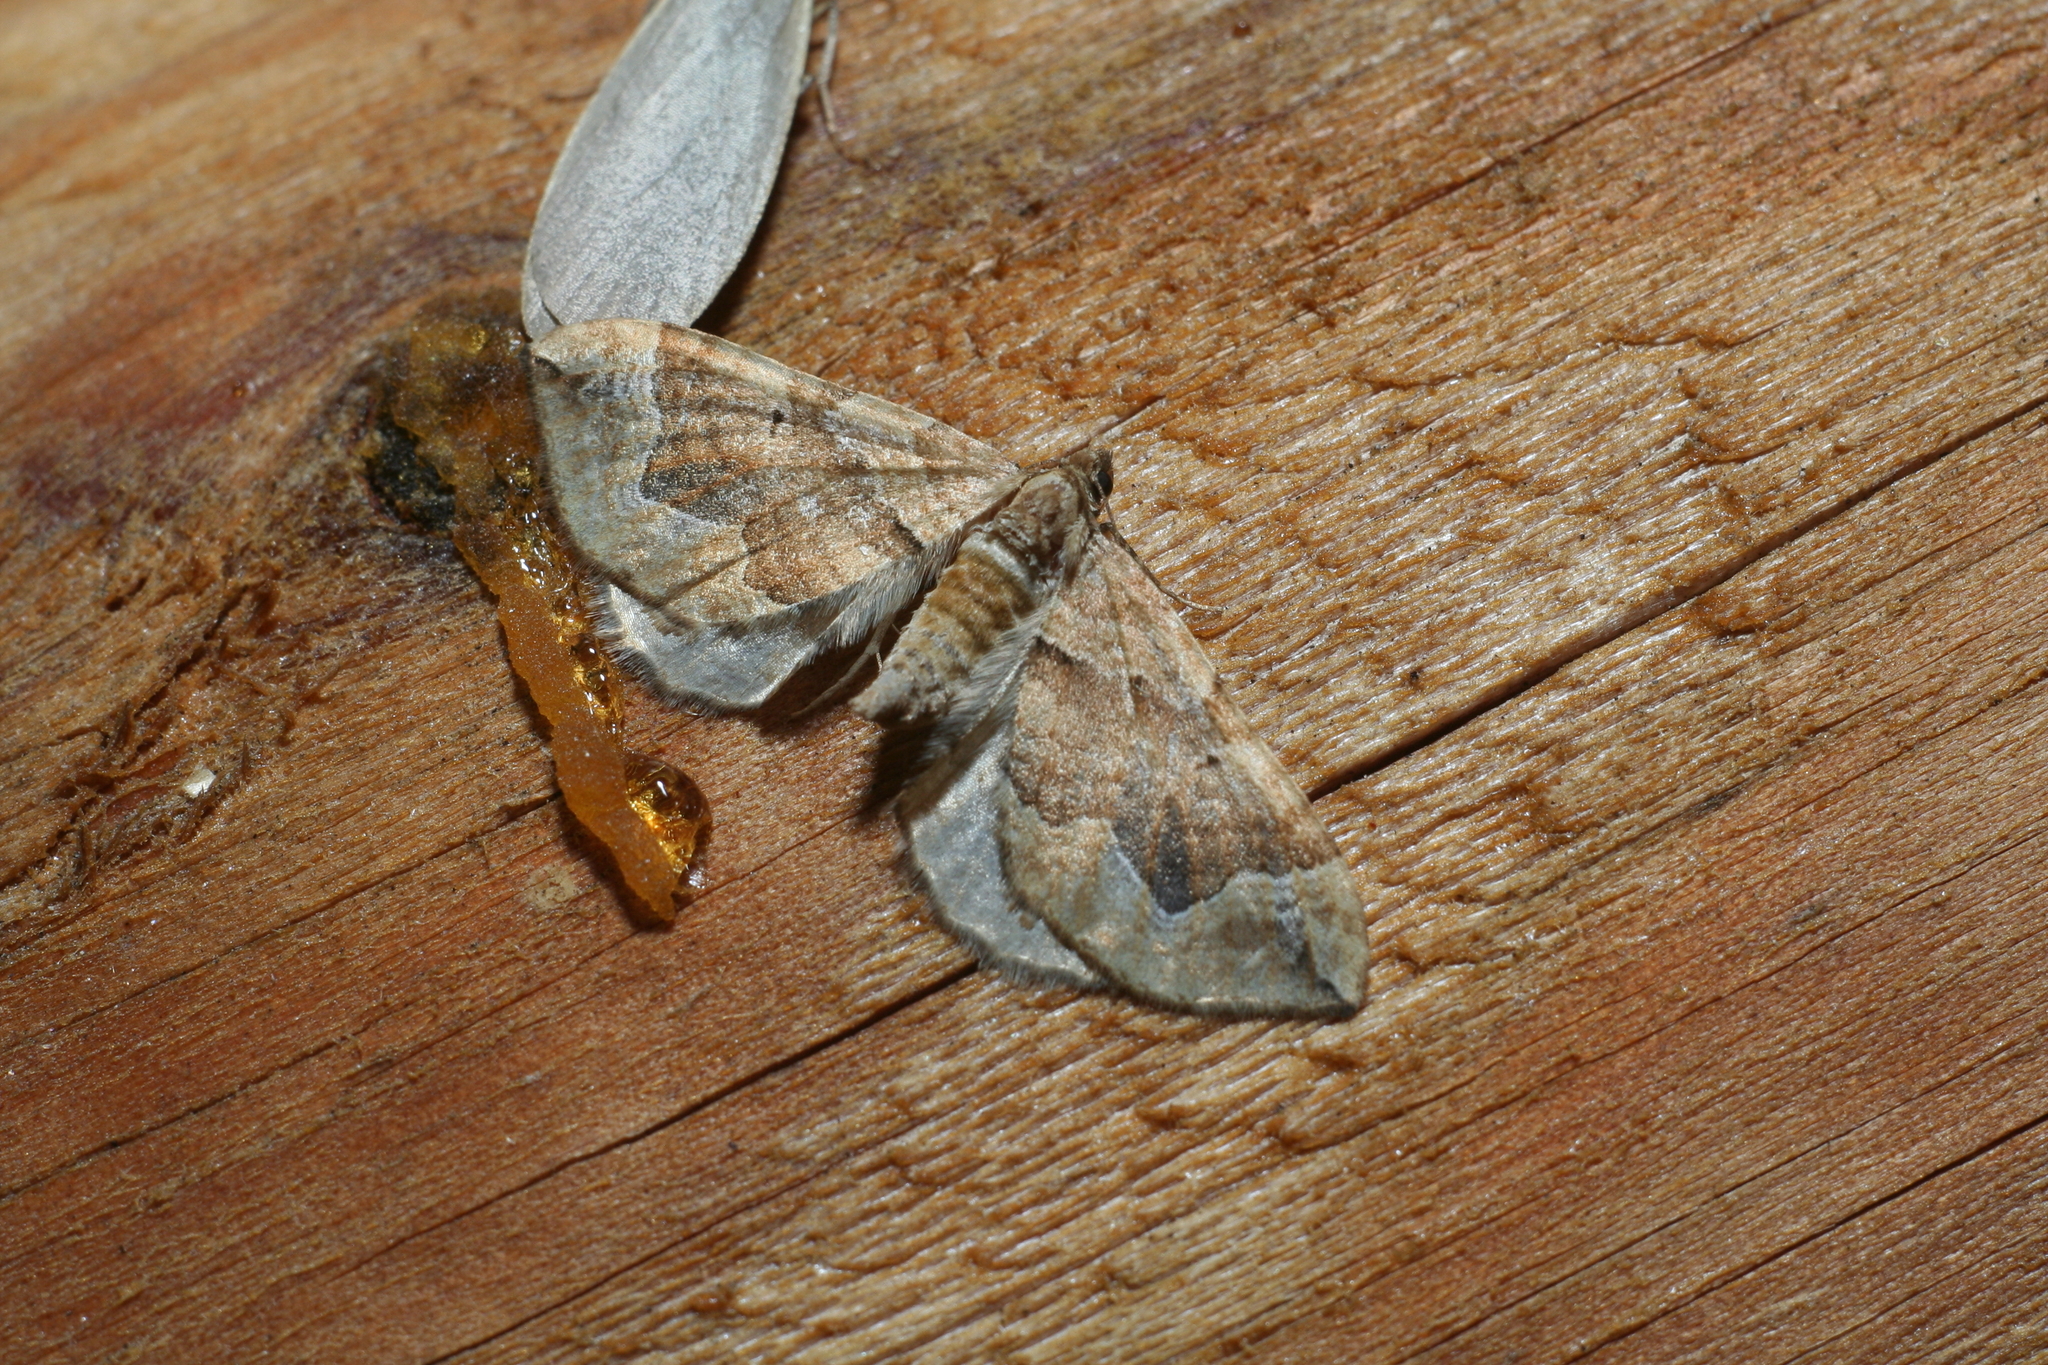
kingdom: Animalia
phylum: Arthropoda
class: Insecta
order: Lepidoptera
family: Geometridae
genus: Pelurga
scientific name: Pelurga comitata
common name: Dark spinach
